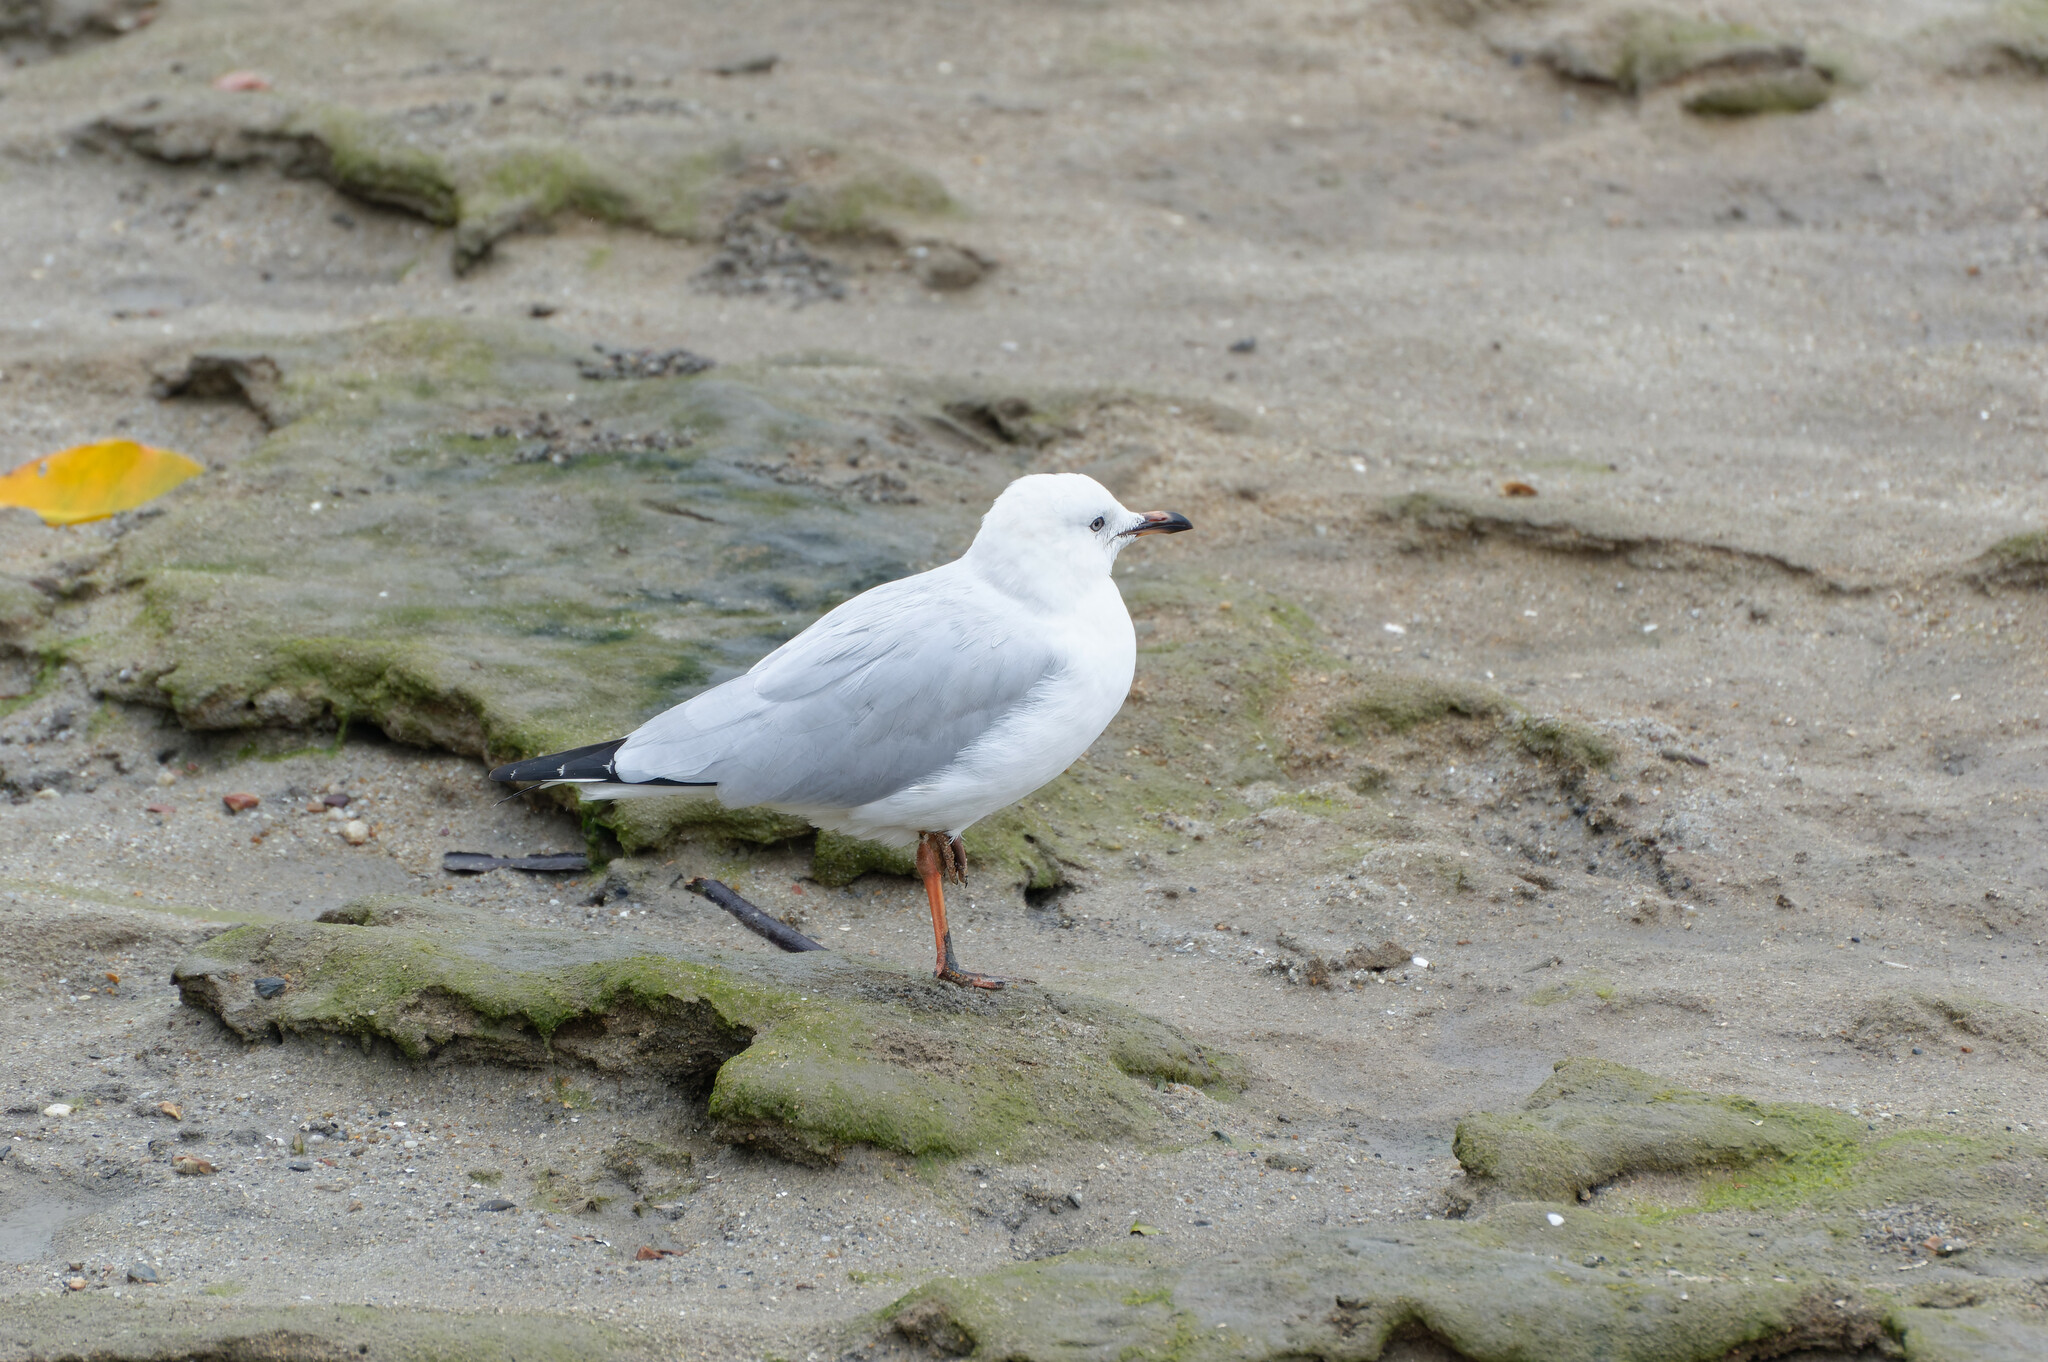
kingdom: Animalia
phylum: Chordata
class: Aves
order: Charadriiformes
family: Laridae
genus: Chroicocephalus
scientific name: Chroicocephalus novaehollandiae
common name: Silver gull
